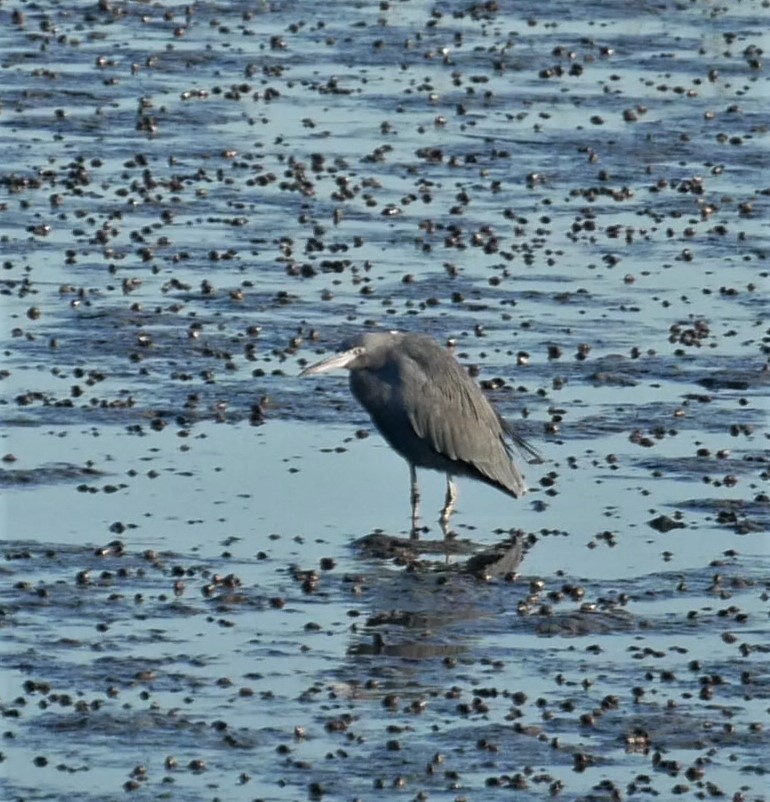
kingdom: Animalia
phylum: Chordata
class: Aves
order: Pelecaniformes
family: Ardeidae
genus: Egretta
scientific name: Egretta caerulea
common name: Little blue heron
